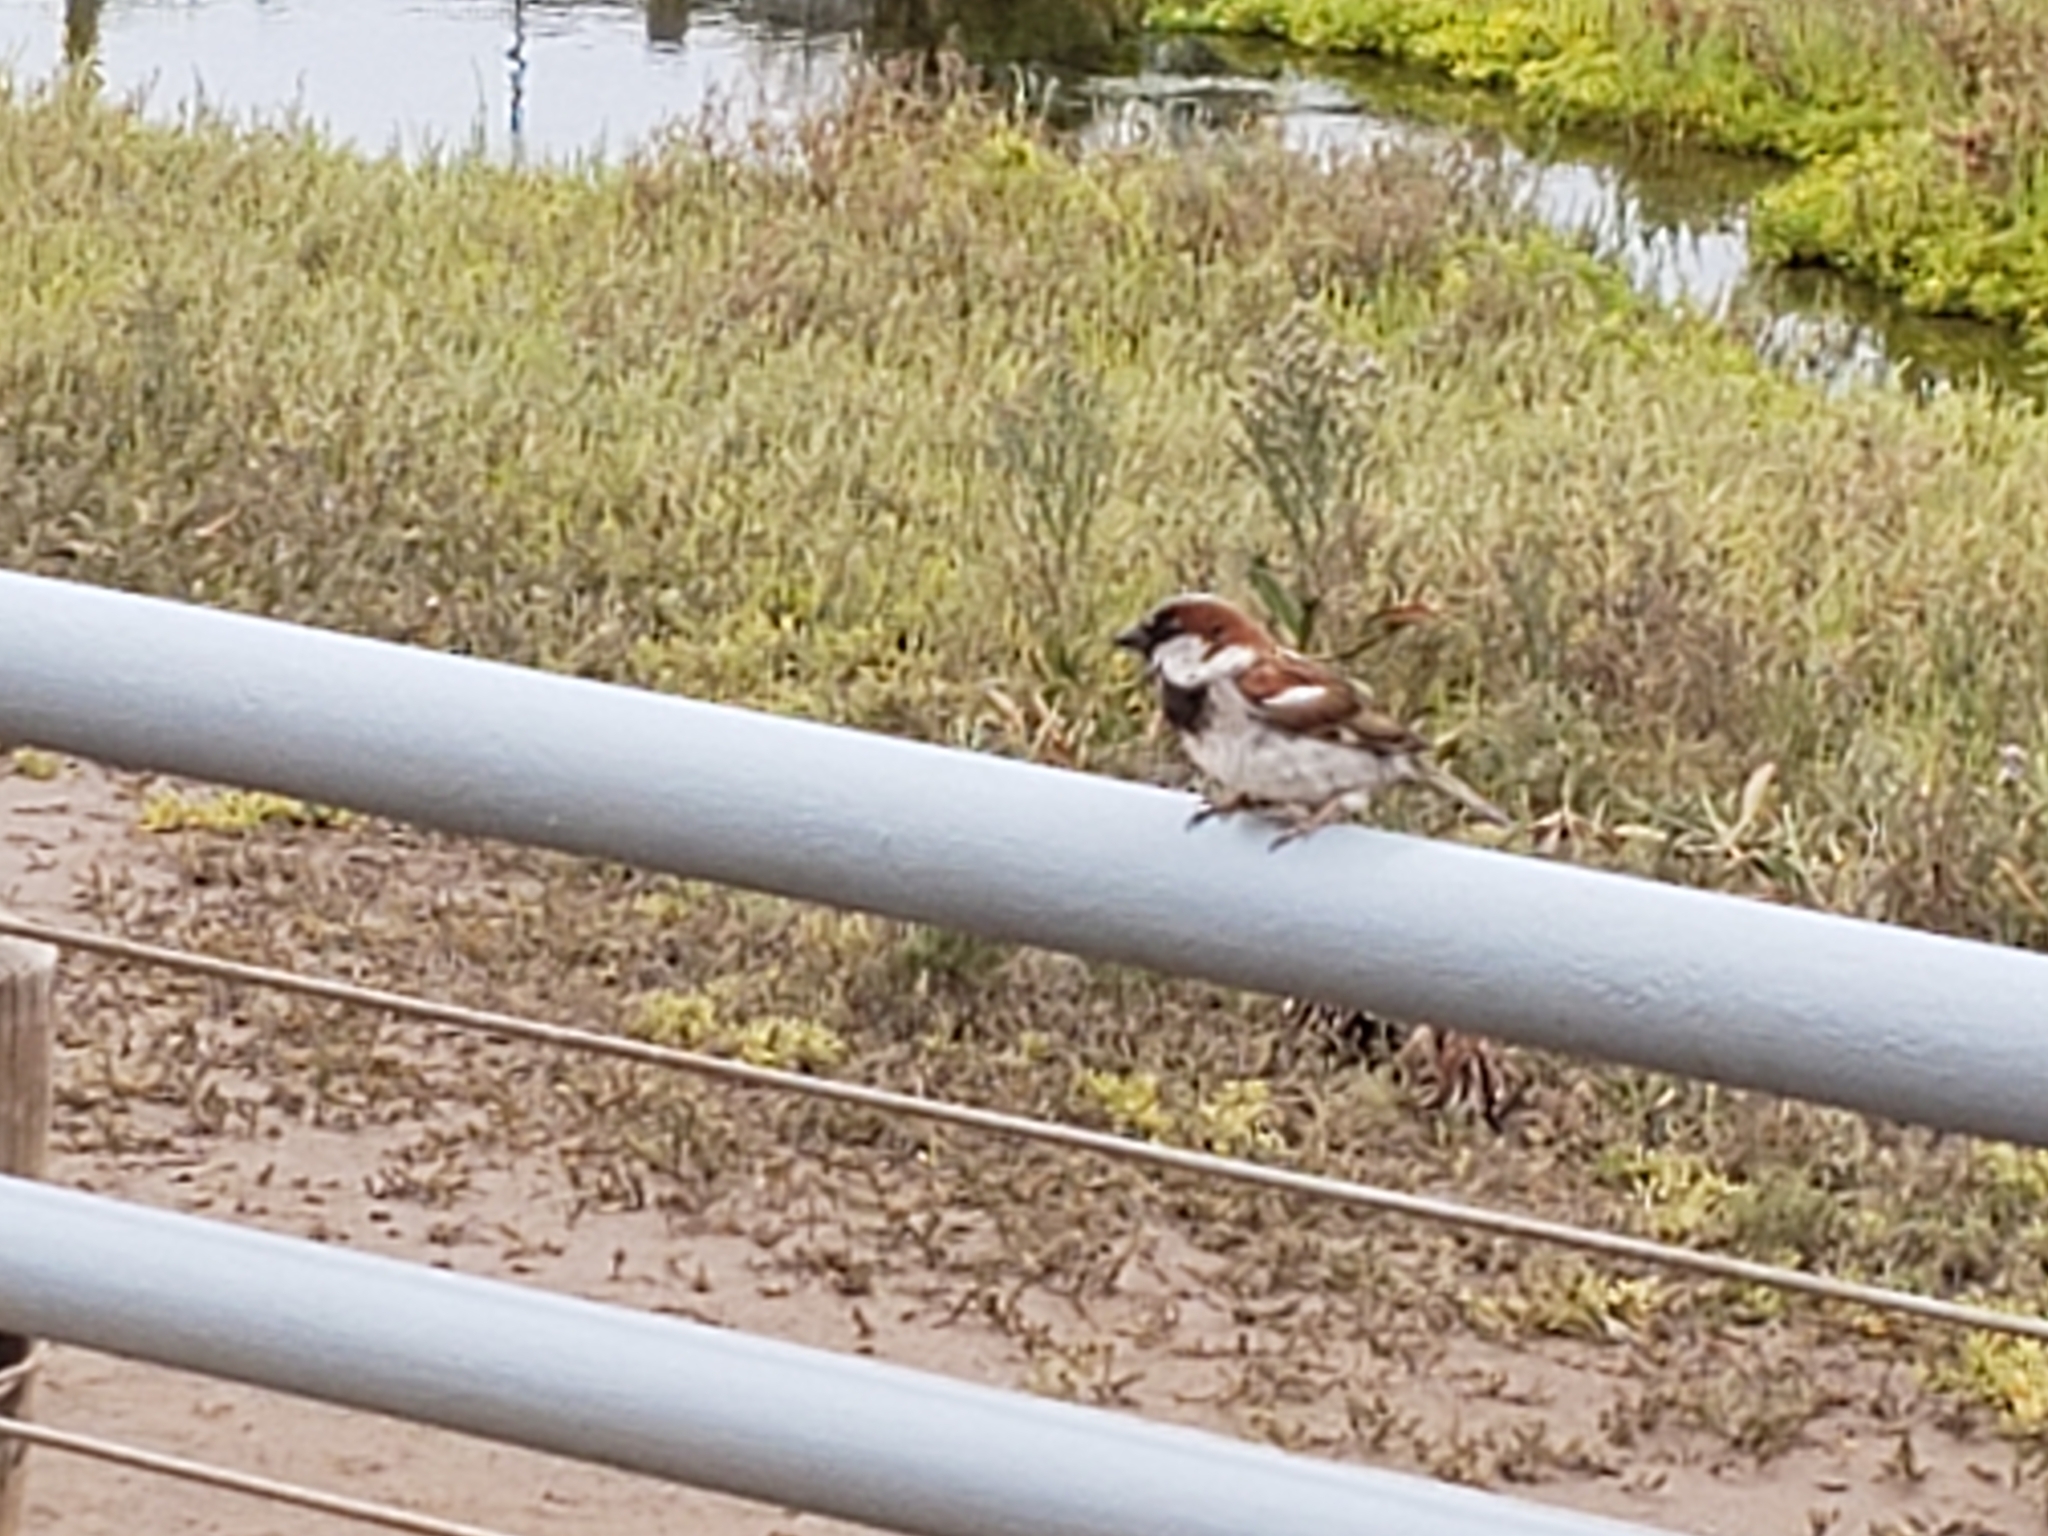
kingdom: Animalia
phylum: Chordata
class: Aves
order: Passeriformes
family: Passeridae
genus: Passer
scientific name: Passer domesticus
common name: House sparrow
